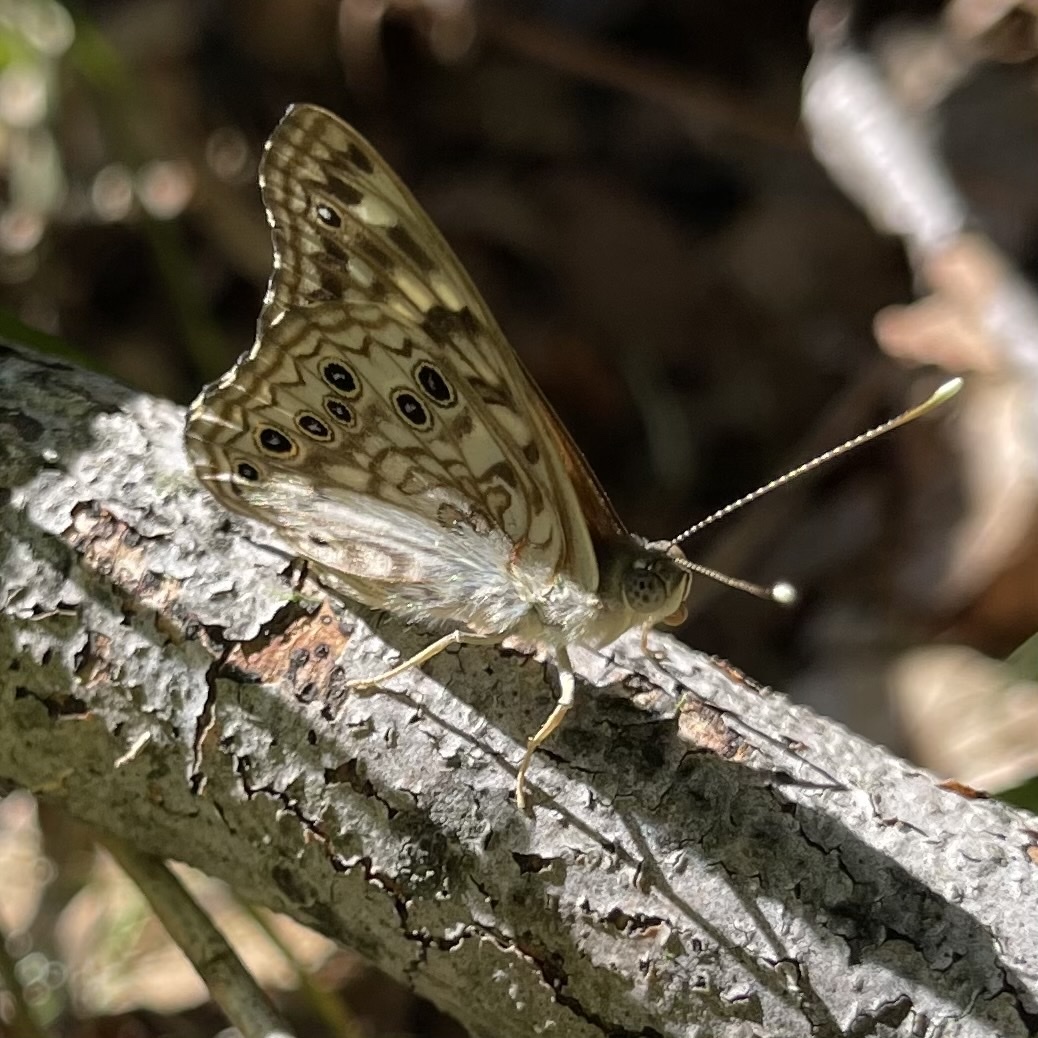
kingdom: Animalia
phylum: Arthropoda
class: Insecta
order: Lepidoptera
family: Nymphalidae
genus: Asterocampa
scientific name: Asterocampa celtis
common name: Hackberry emperor
